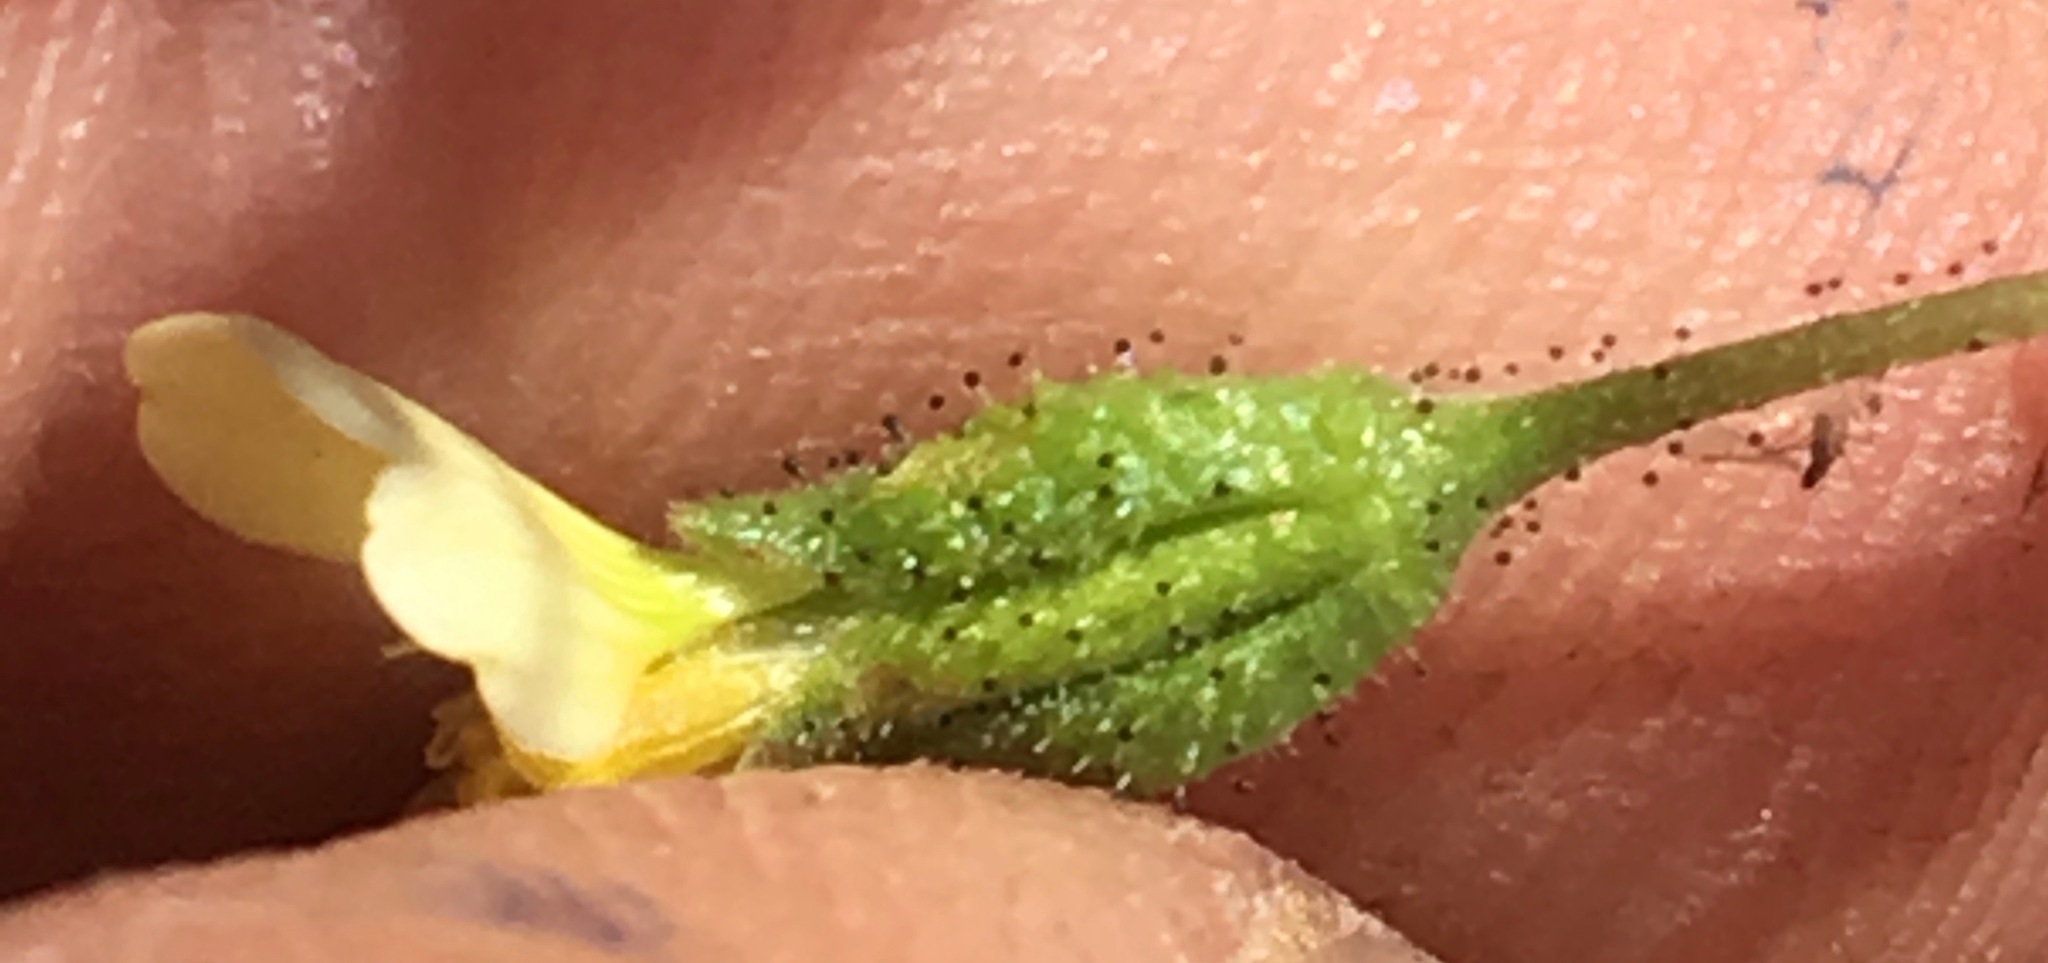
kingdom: Plantae
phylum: Tracheophyta
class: Magnoliopsida
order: Asterales
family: Asteraceae
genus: Layia
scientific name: Layia heterotricha
